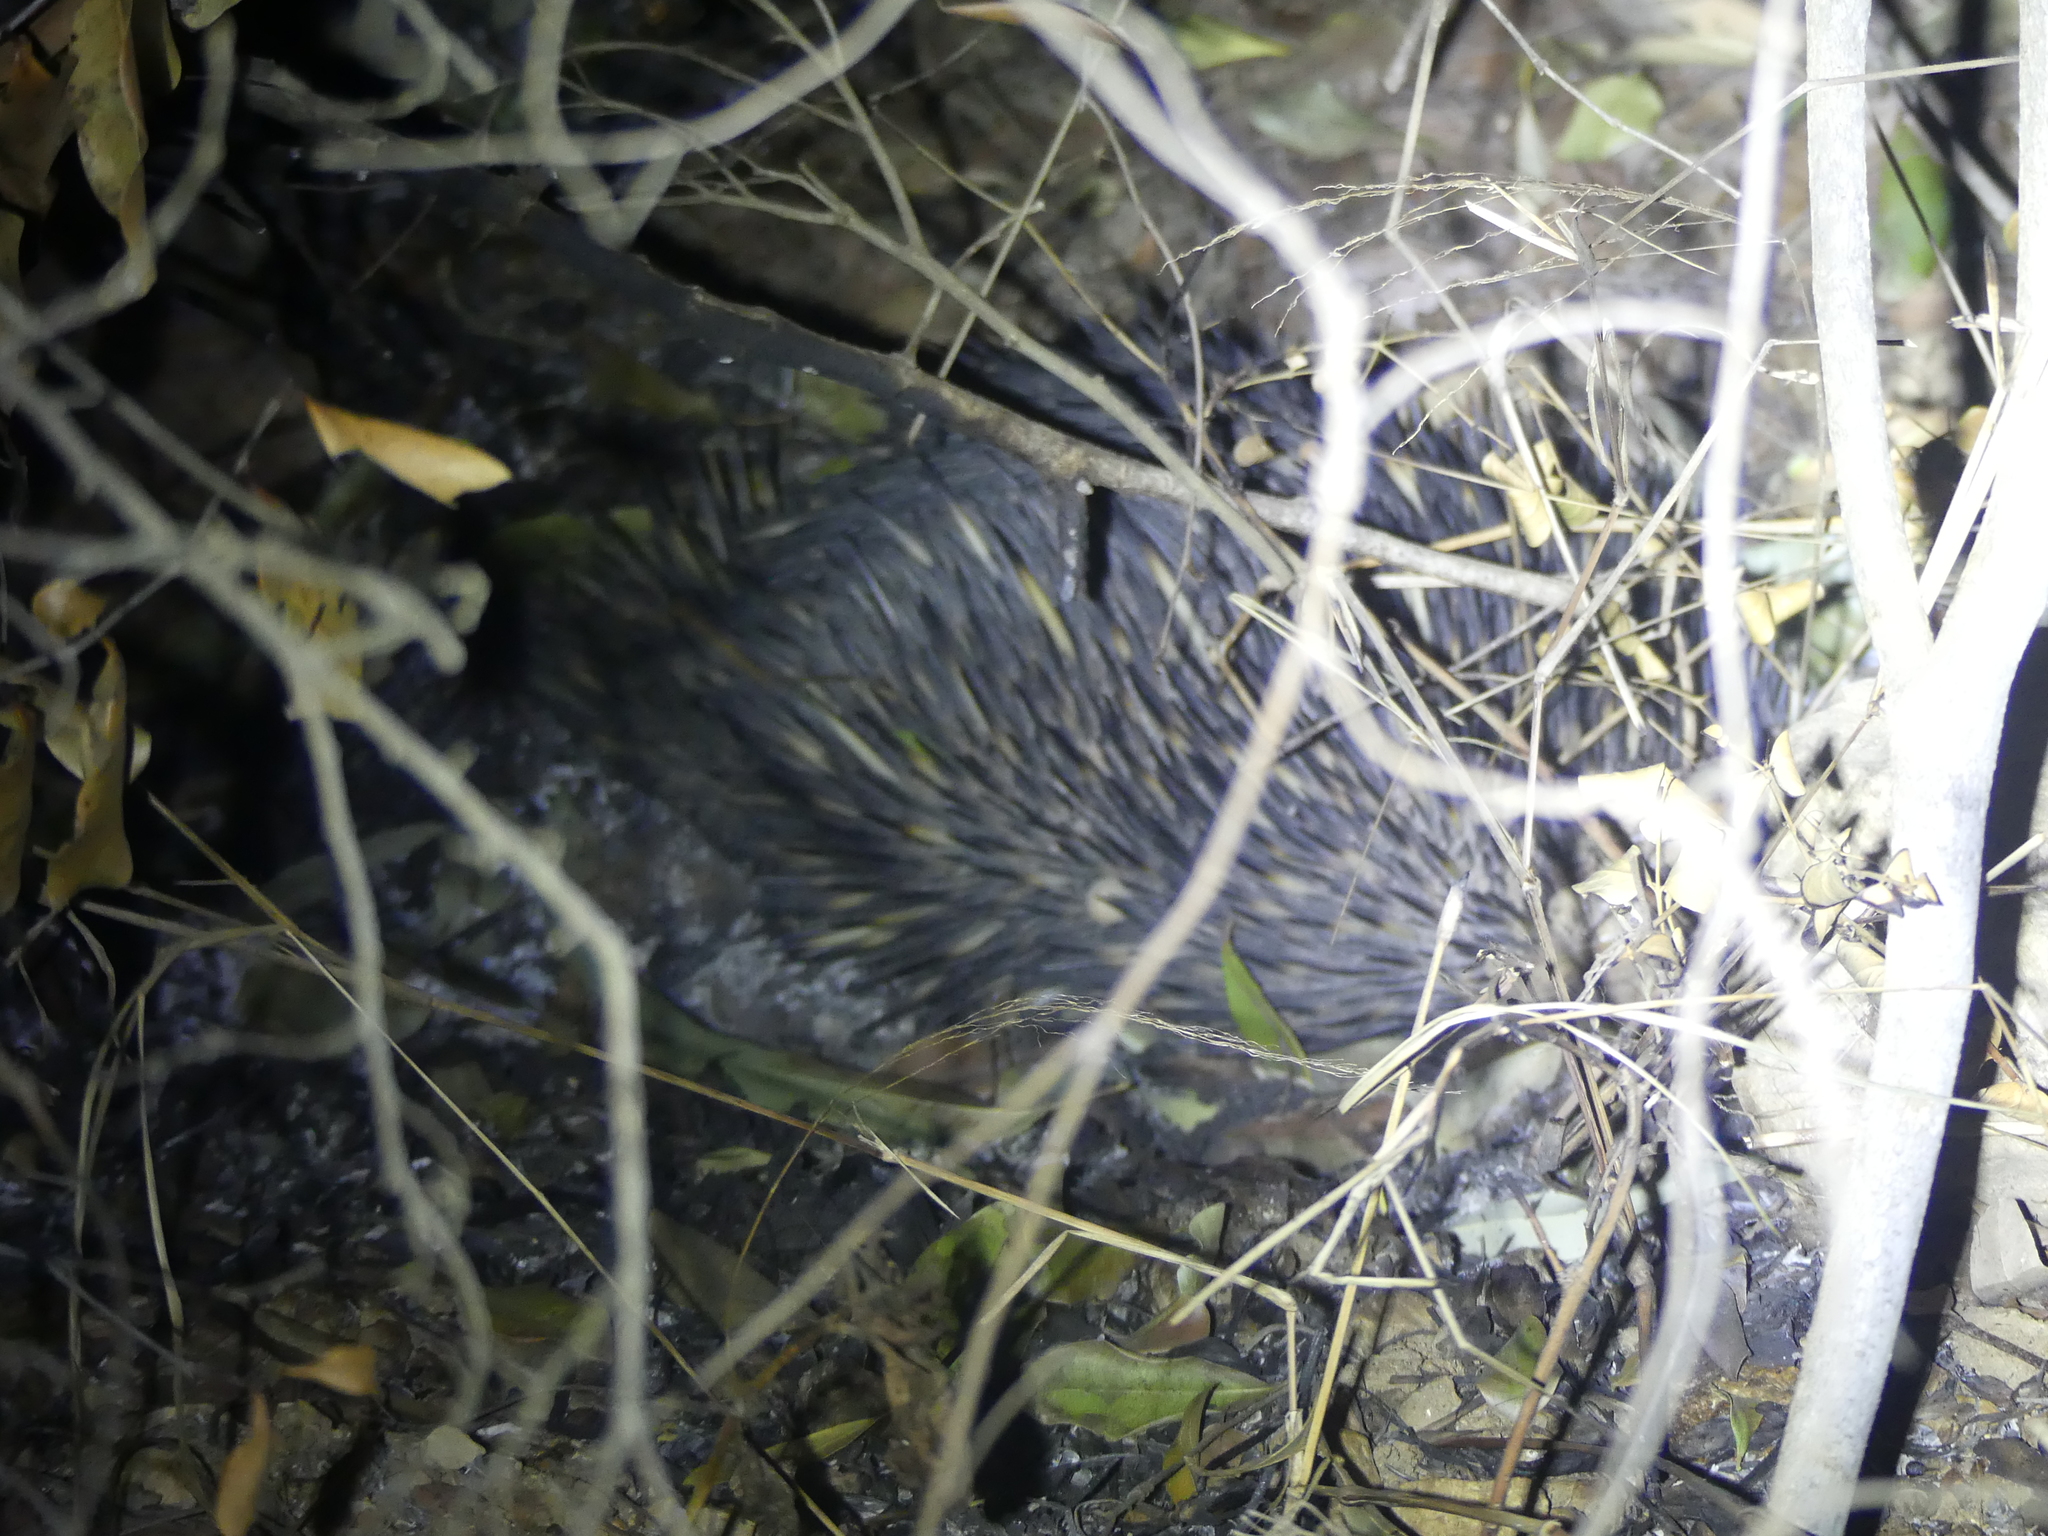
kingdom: Animalia
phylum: Chordata
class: Mammalia
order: Monotremata
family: Tachyglossidae
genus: Tachyglossus
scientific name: Tachyglossus aculeatus
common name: Short-beaked echidna
